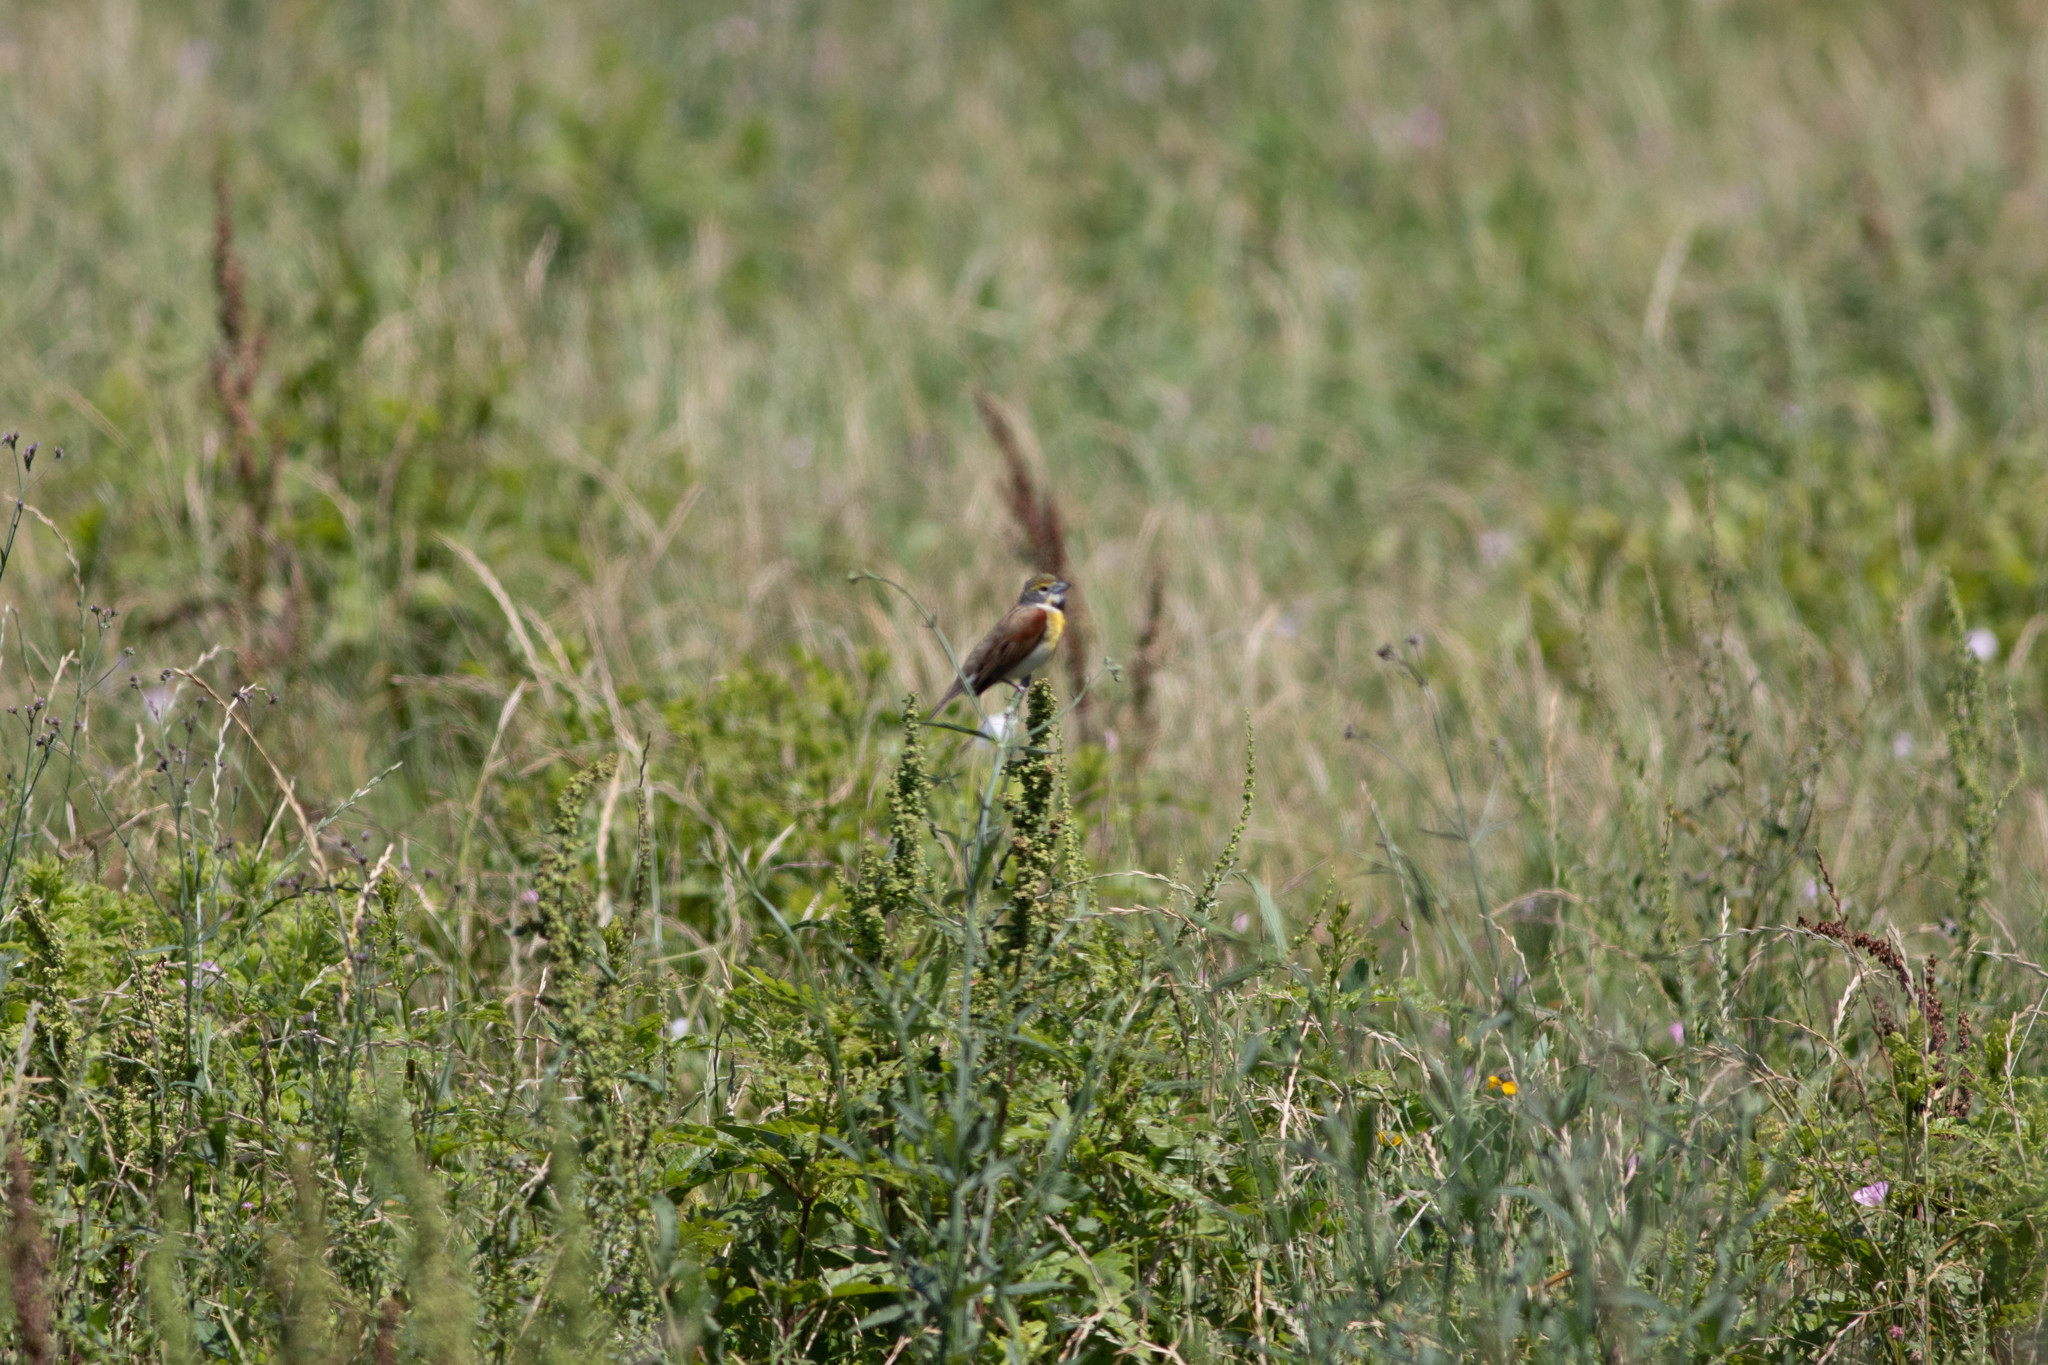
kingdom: Animalia
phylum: Chordata
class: Aves
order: Passeriformes
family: Cardinalidae
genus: Spiza
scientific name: Spiza americana
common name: Dickcissel
